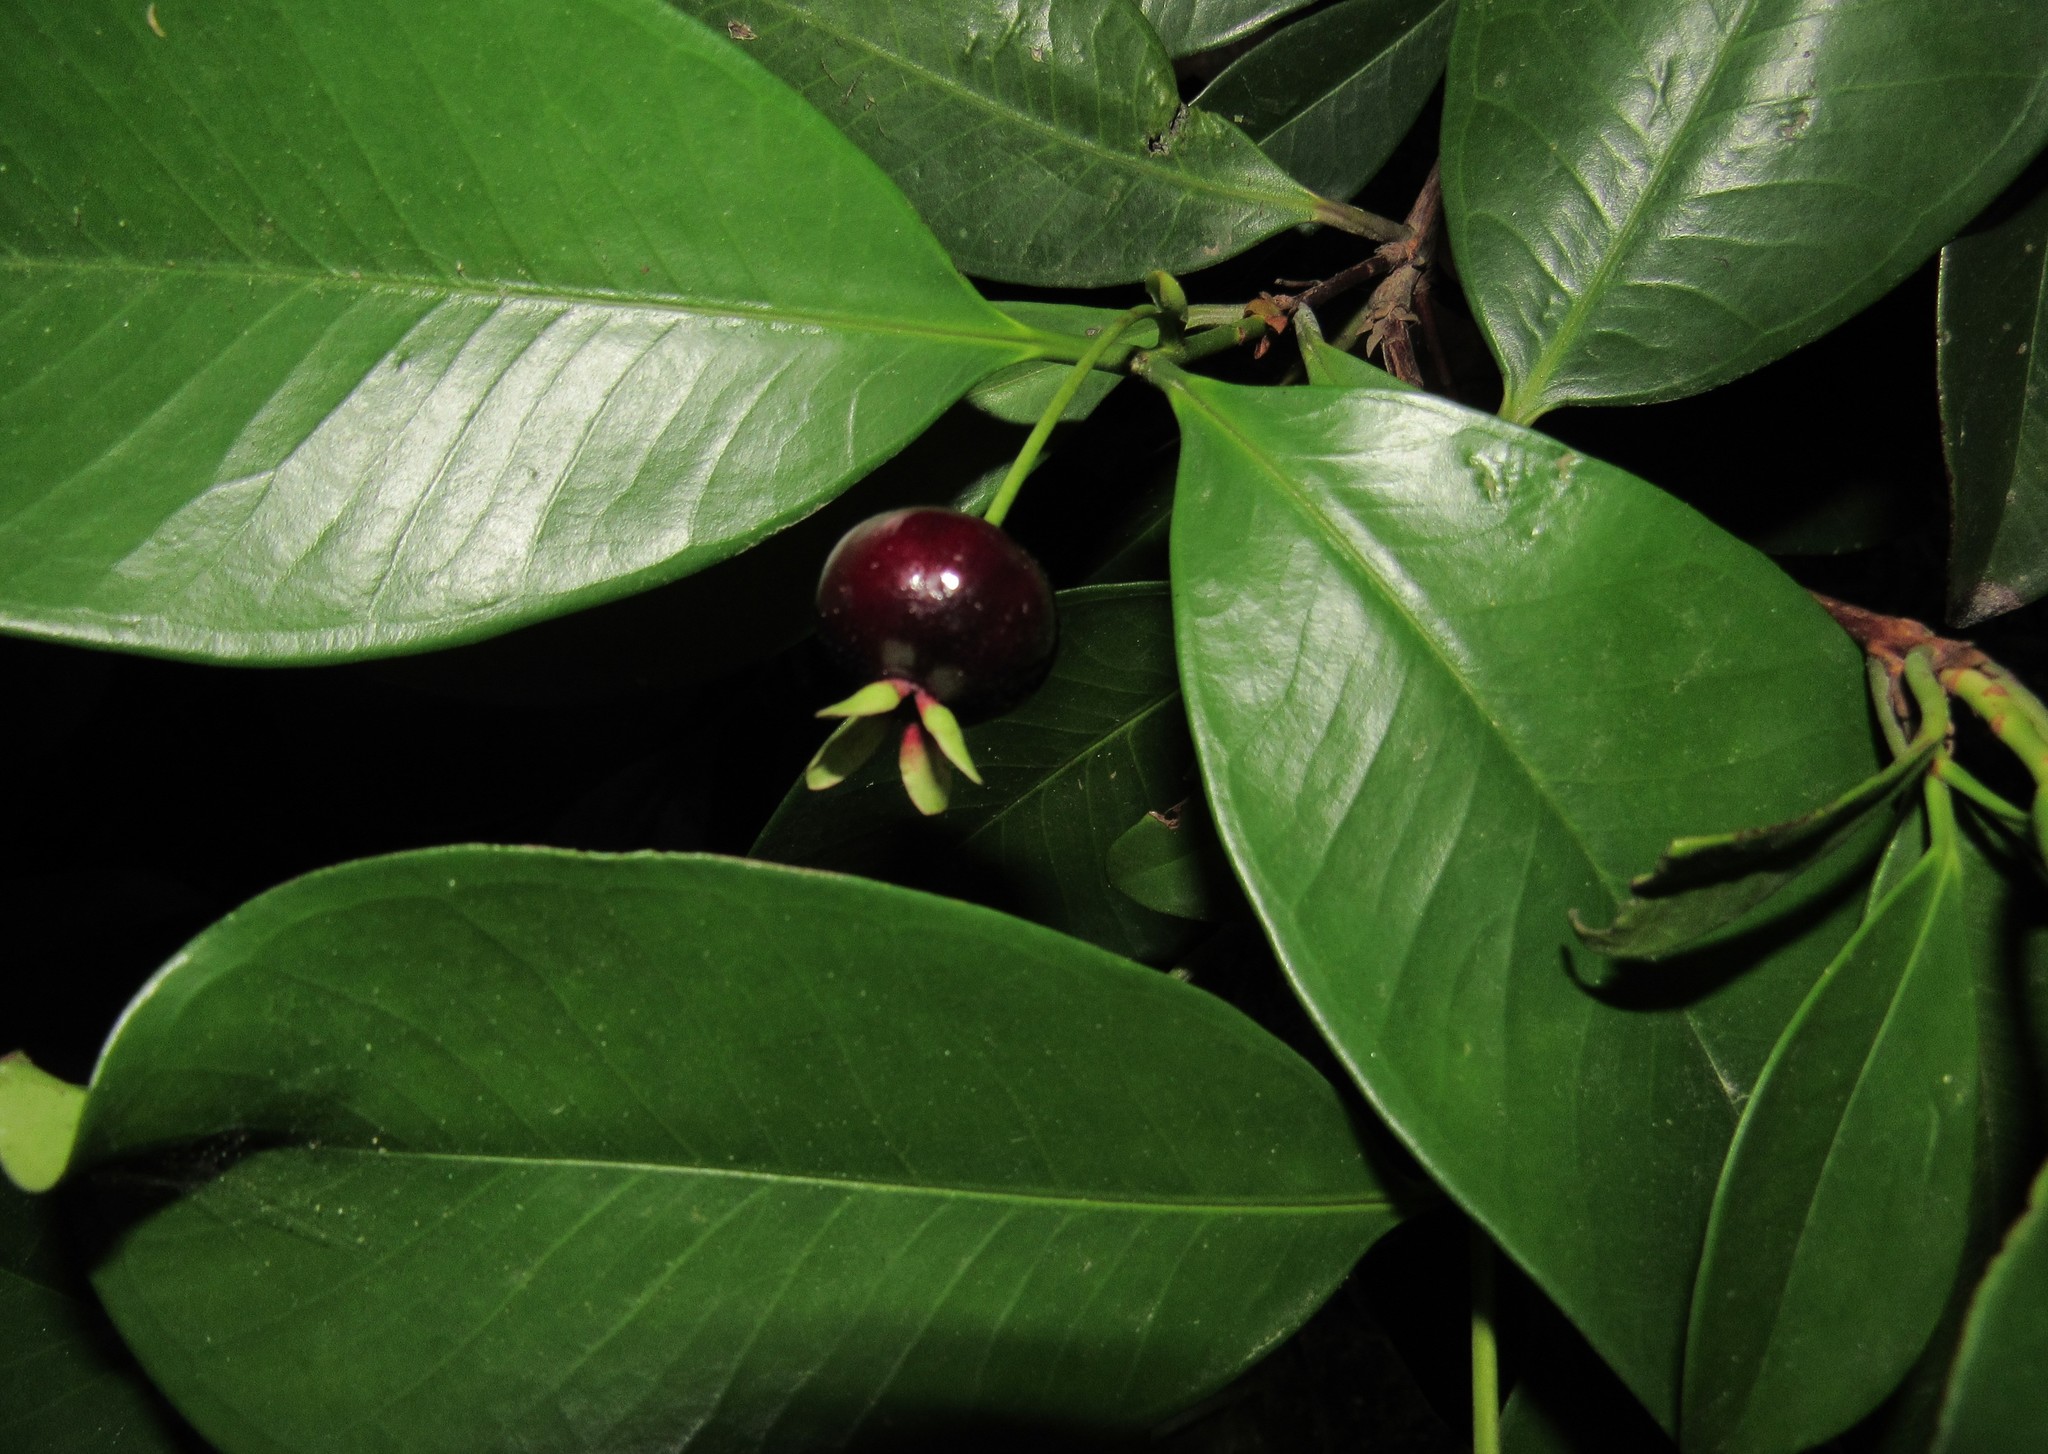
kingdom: Plantae
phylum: Tracheophyta
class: Magnoliopsida
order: Myrtales
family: Myrtaceae
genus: Eugenia
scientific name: Eugenia brasiliensis
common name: Grumichama
